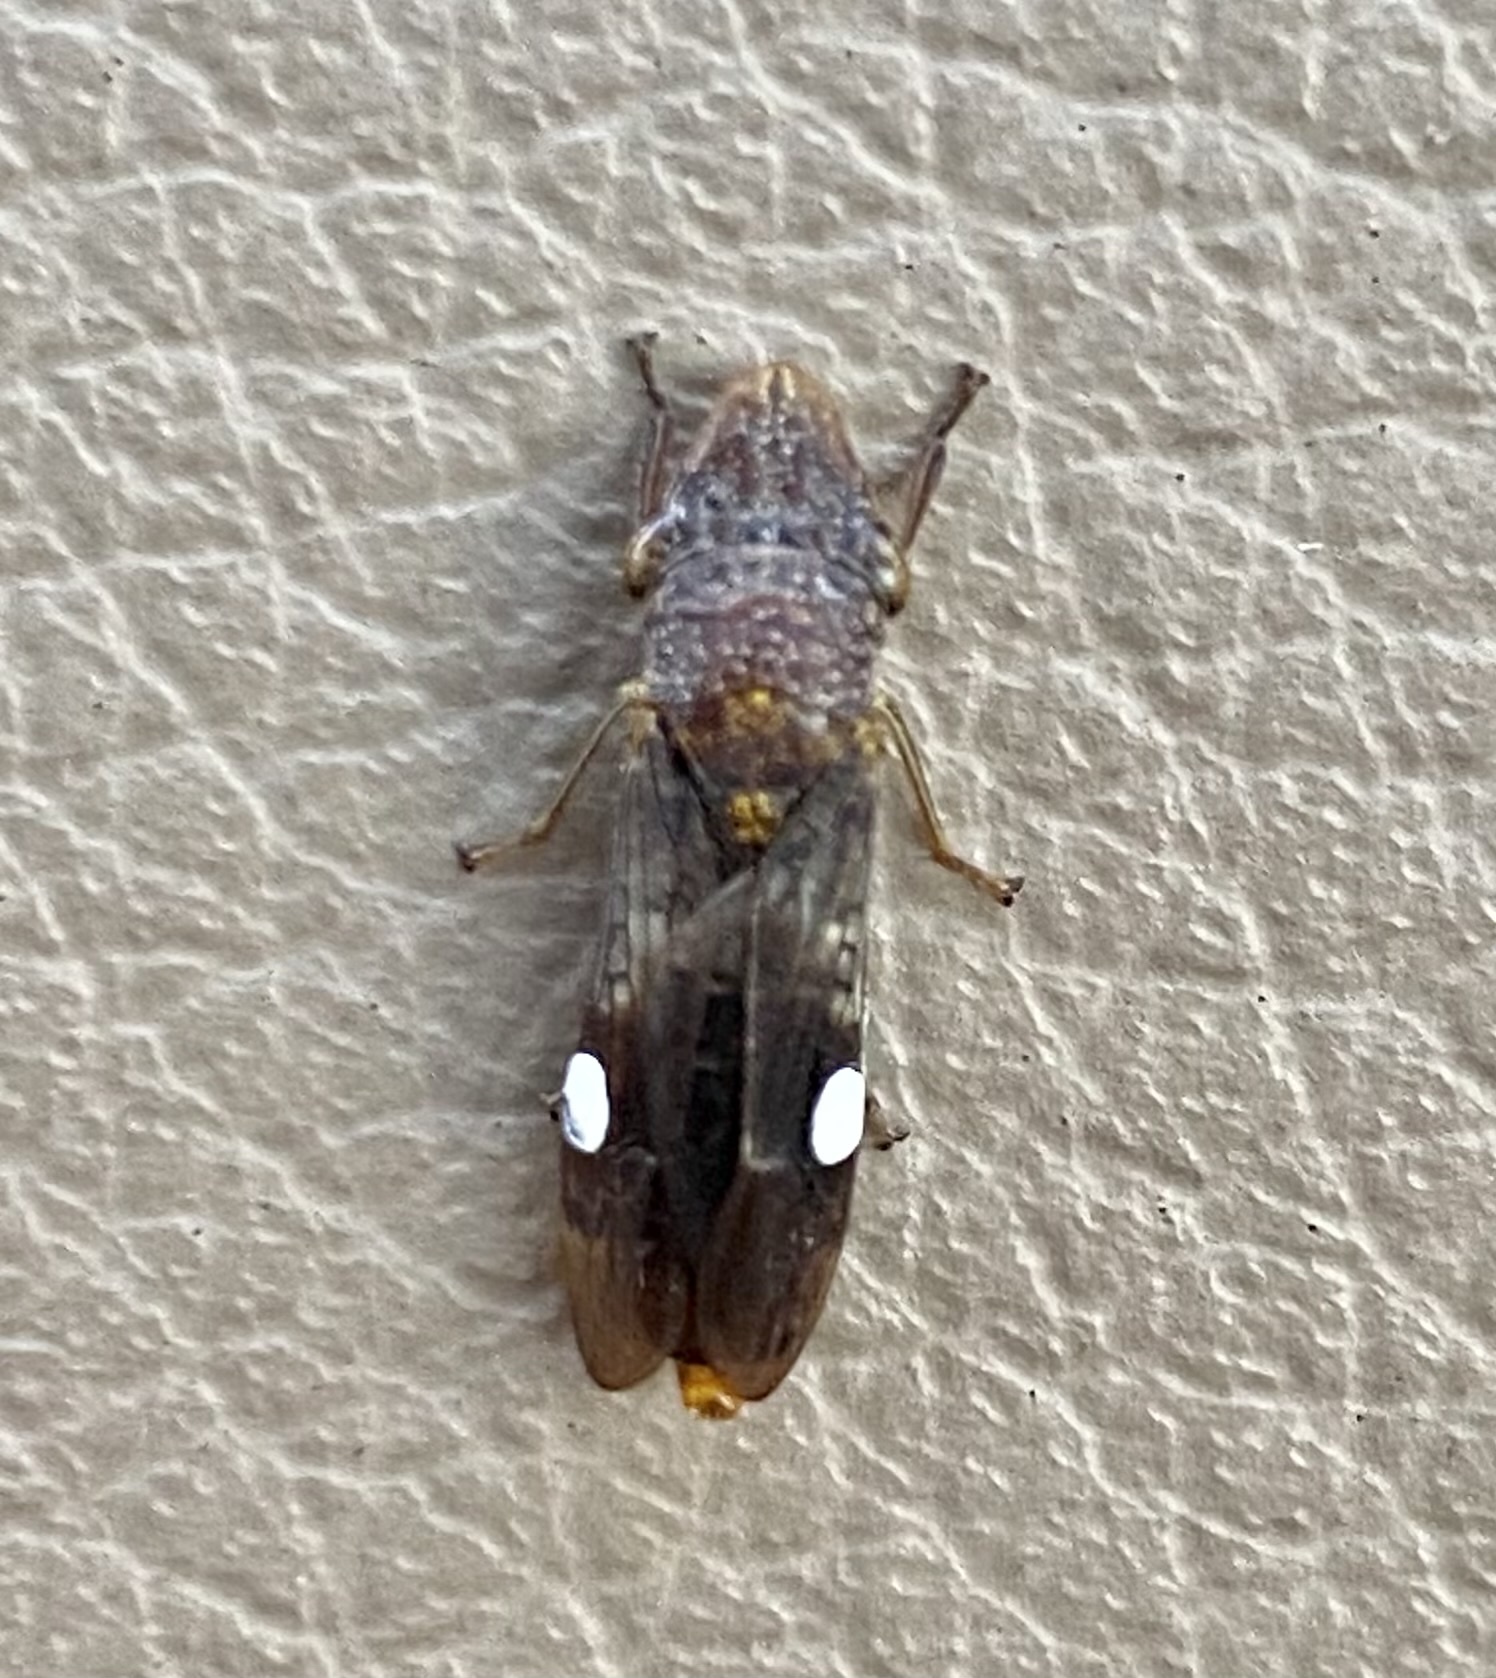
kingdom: Animalia
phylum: Arthropoda
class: Insecta
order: Hemiptera
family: Cicadellidae
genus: Homalodisca
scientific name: Homalodisca vitripennis
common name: Glassy-winged sharpshooter
